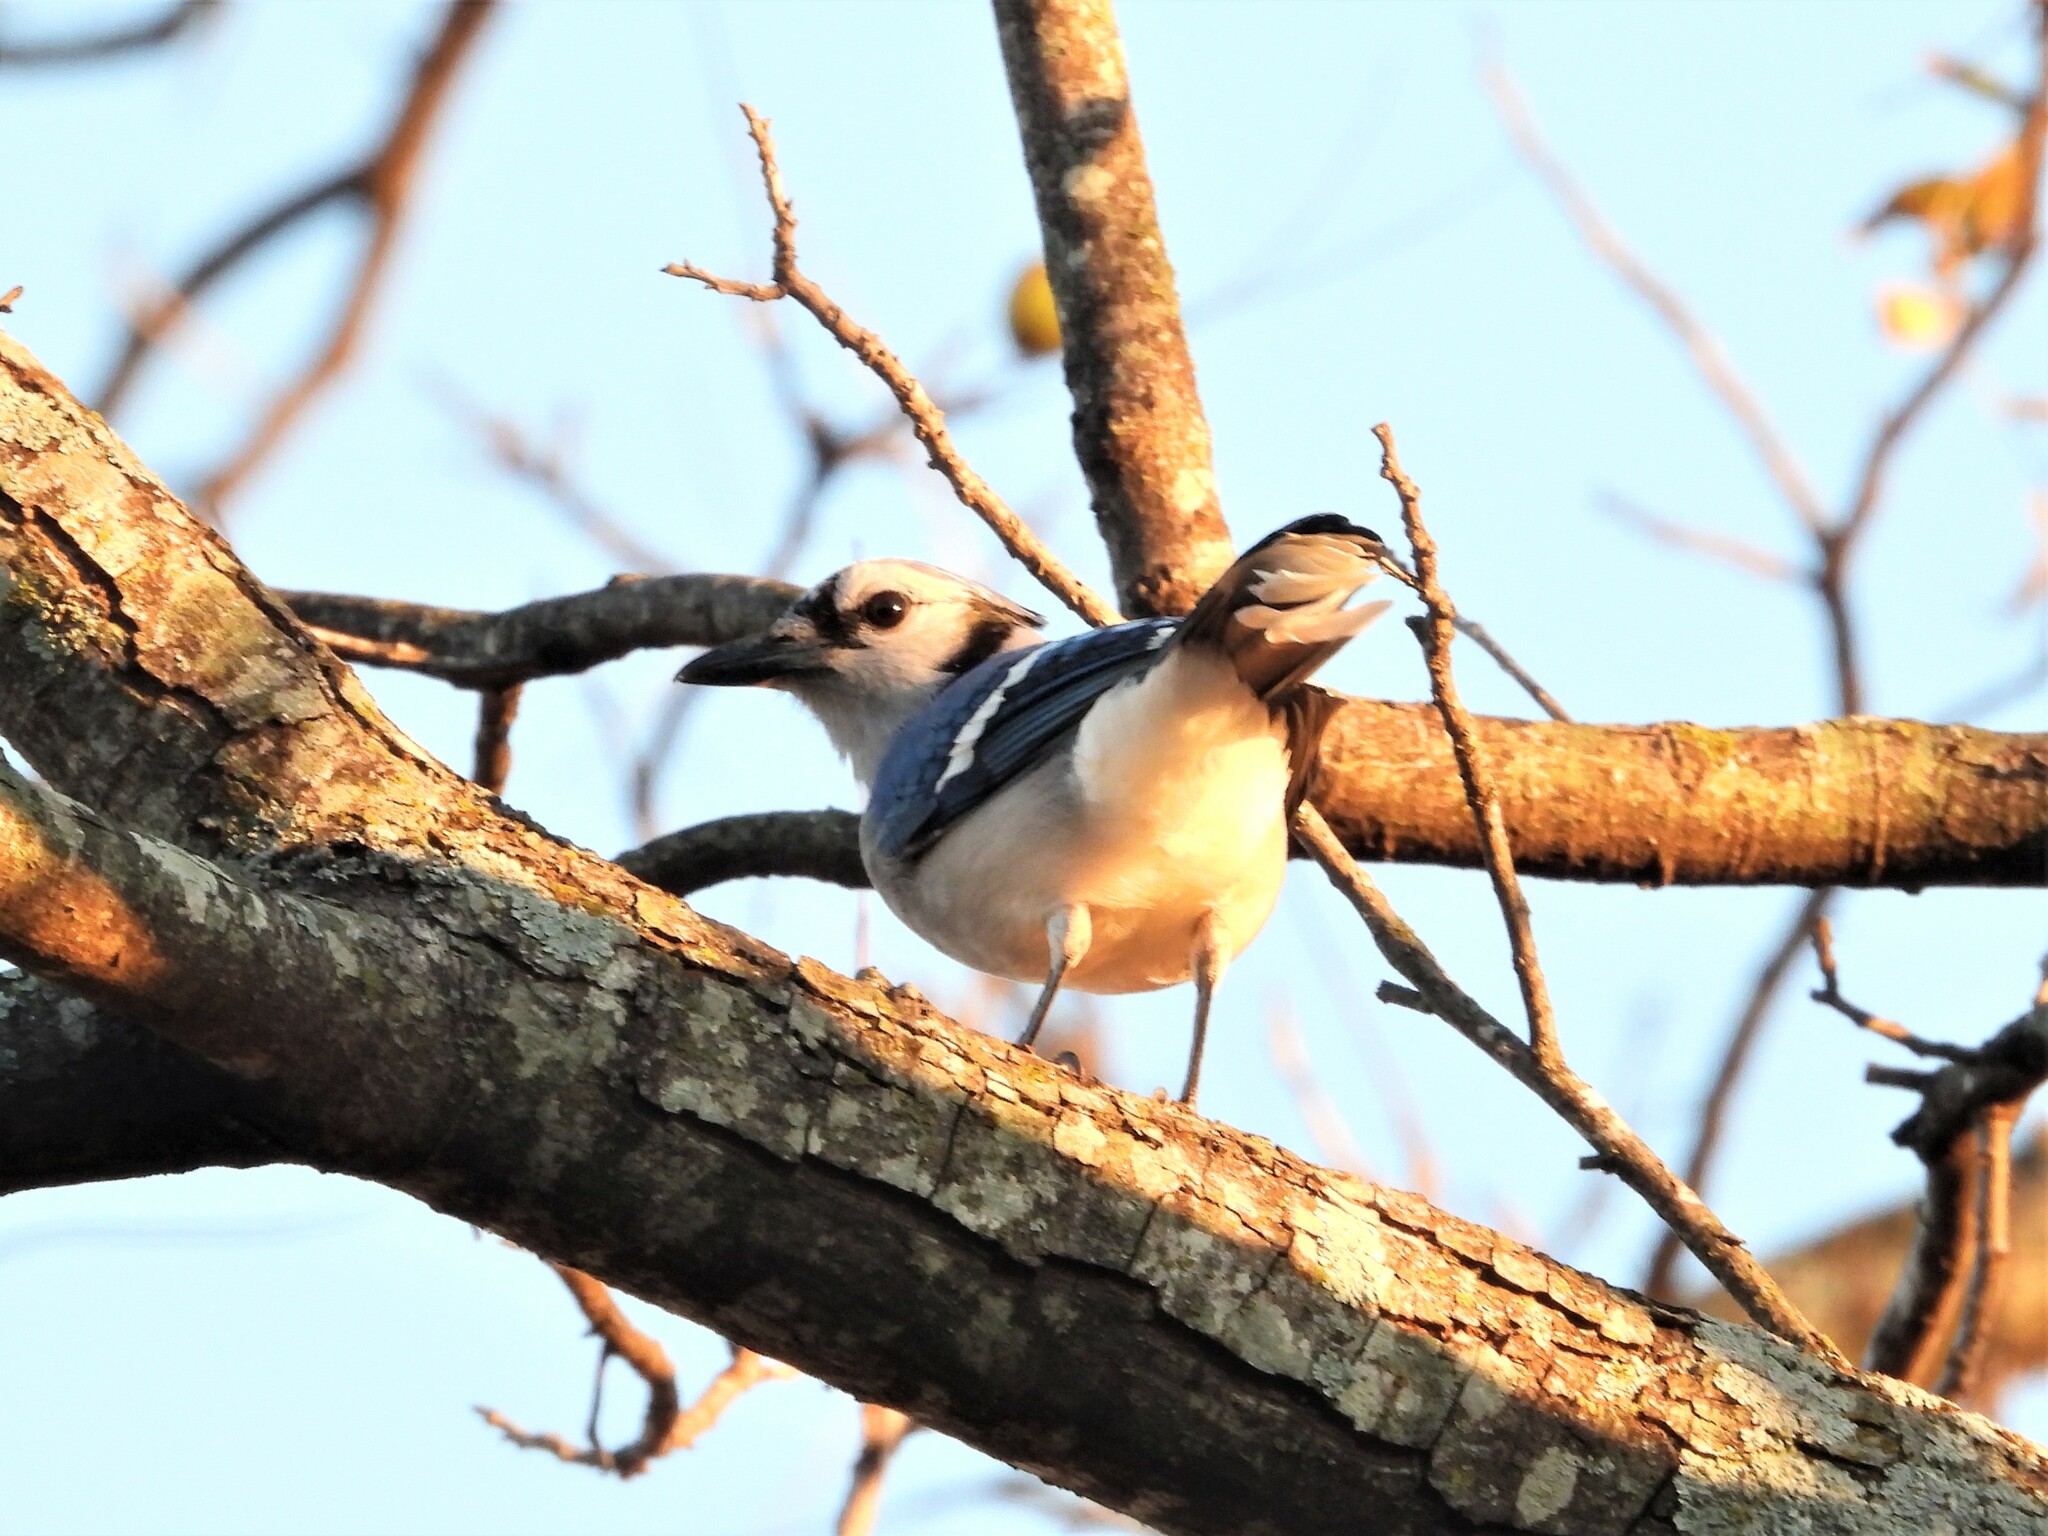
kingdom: Animalia
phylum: Chordata
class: Aves
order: Passeriformes
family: Corvidae
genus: Cyanocitta
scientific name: Cyanocitta cristata
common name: Blue jay
